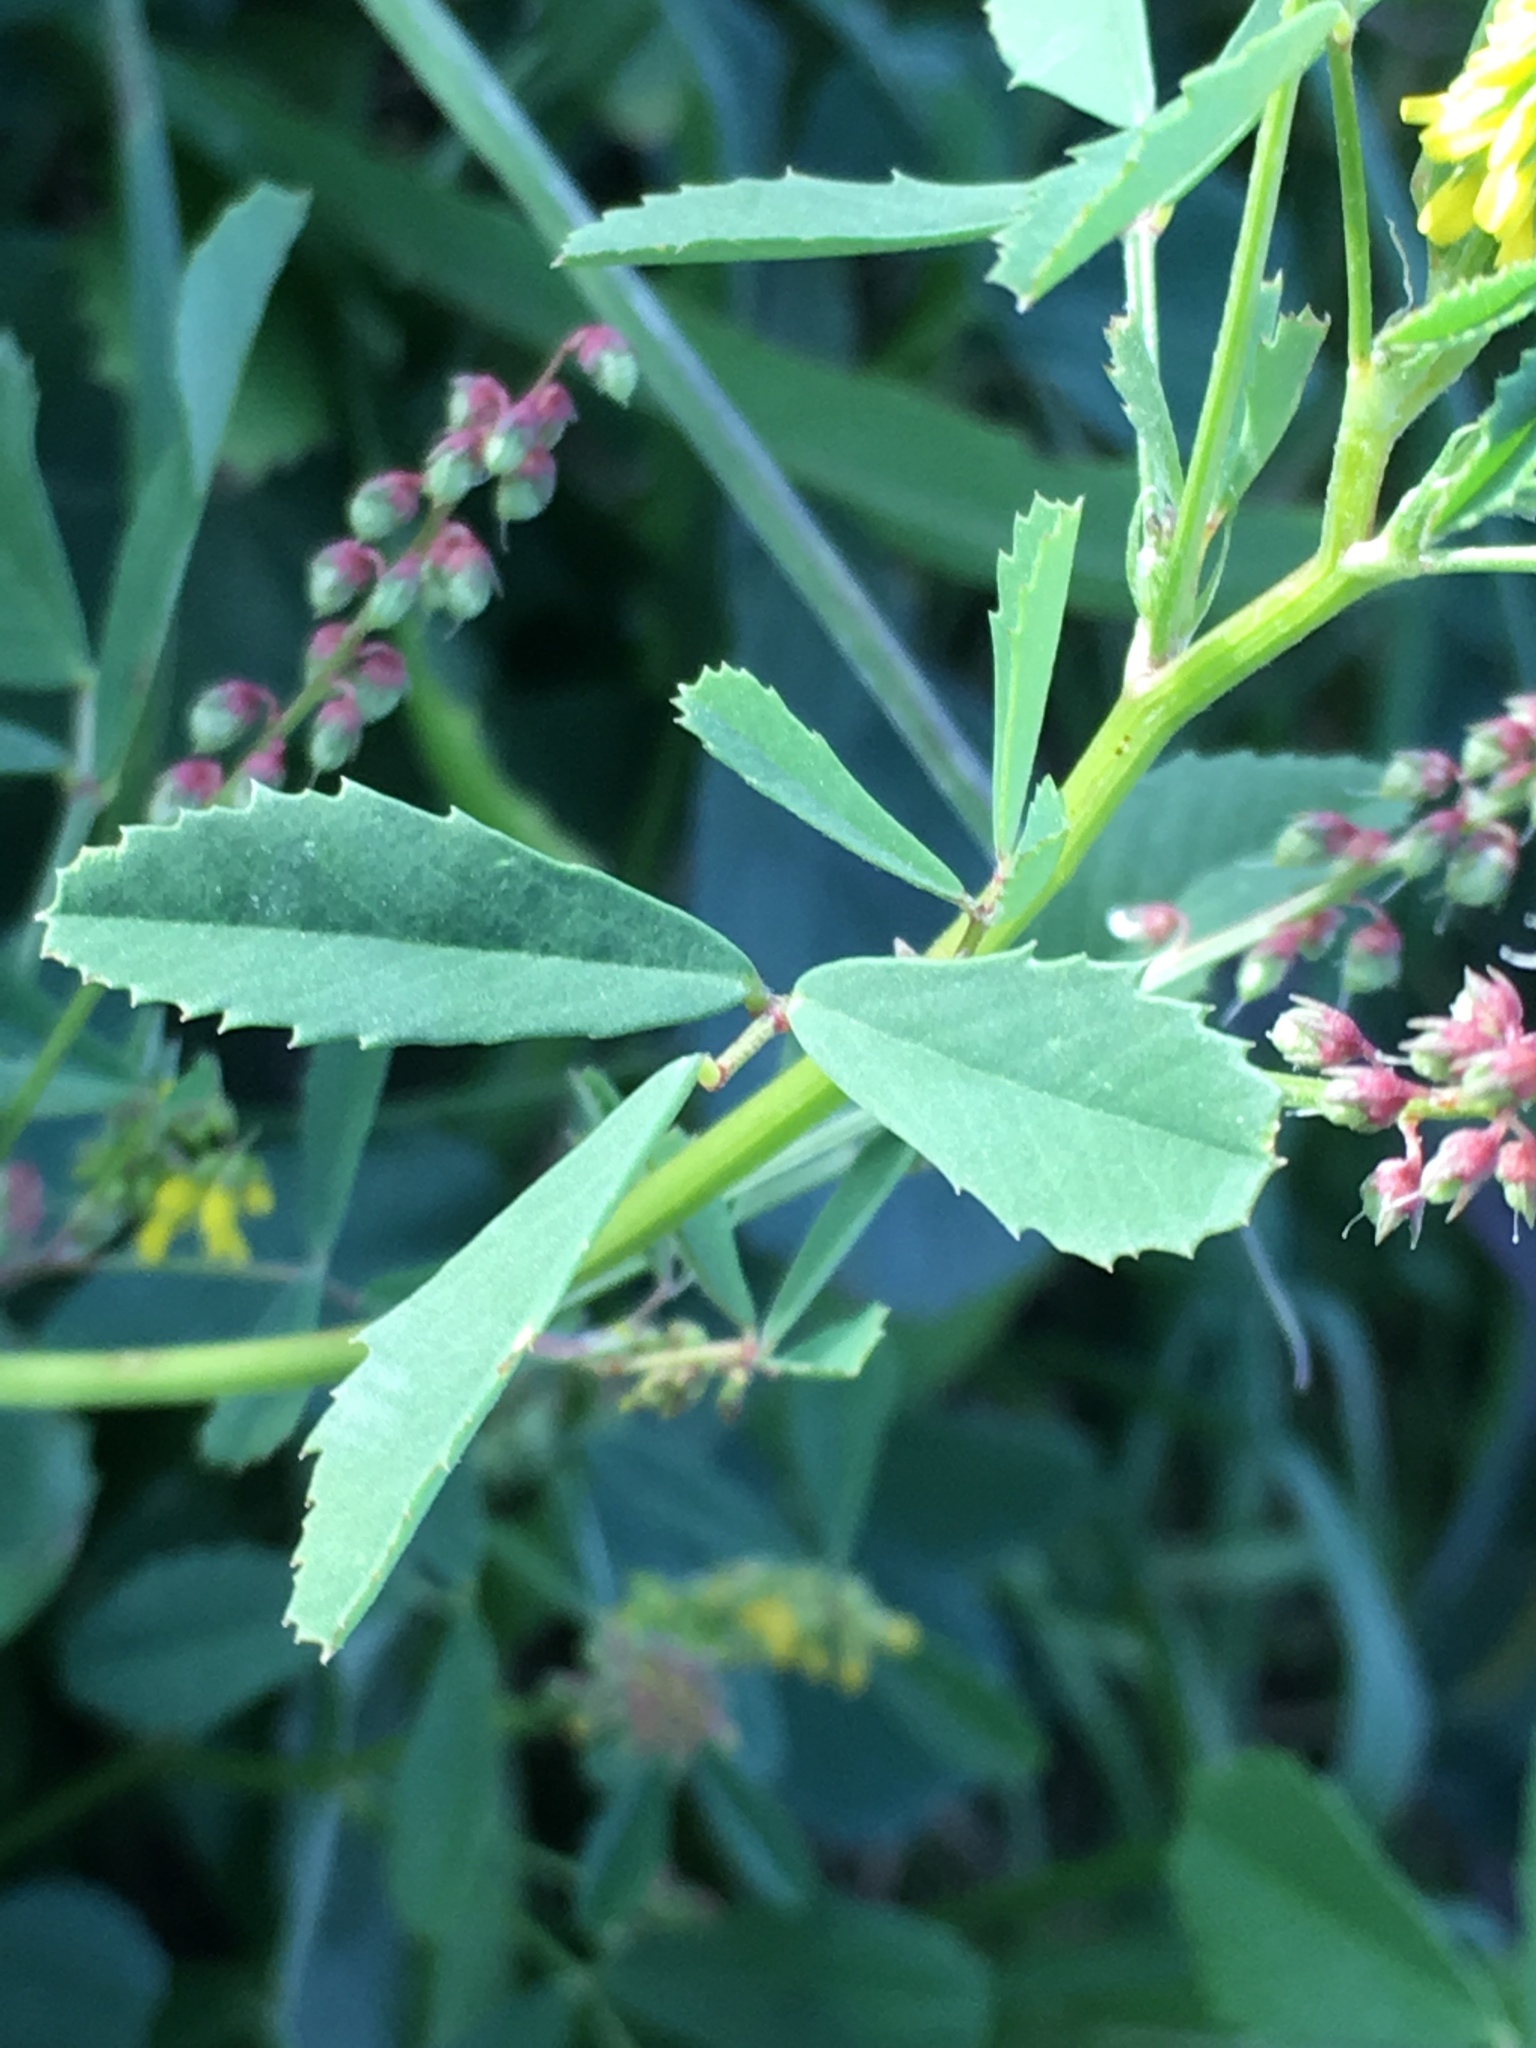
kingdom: Plantae
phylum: Tracheophyta
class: Magnoliopsida
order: Fabales
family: Fabaceae
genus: Melilotus
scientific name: Melilotus indicus
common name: Small melilot
